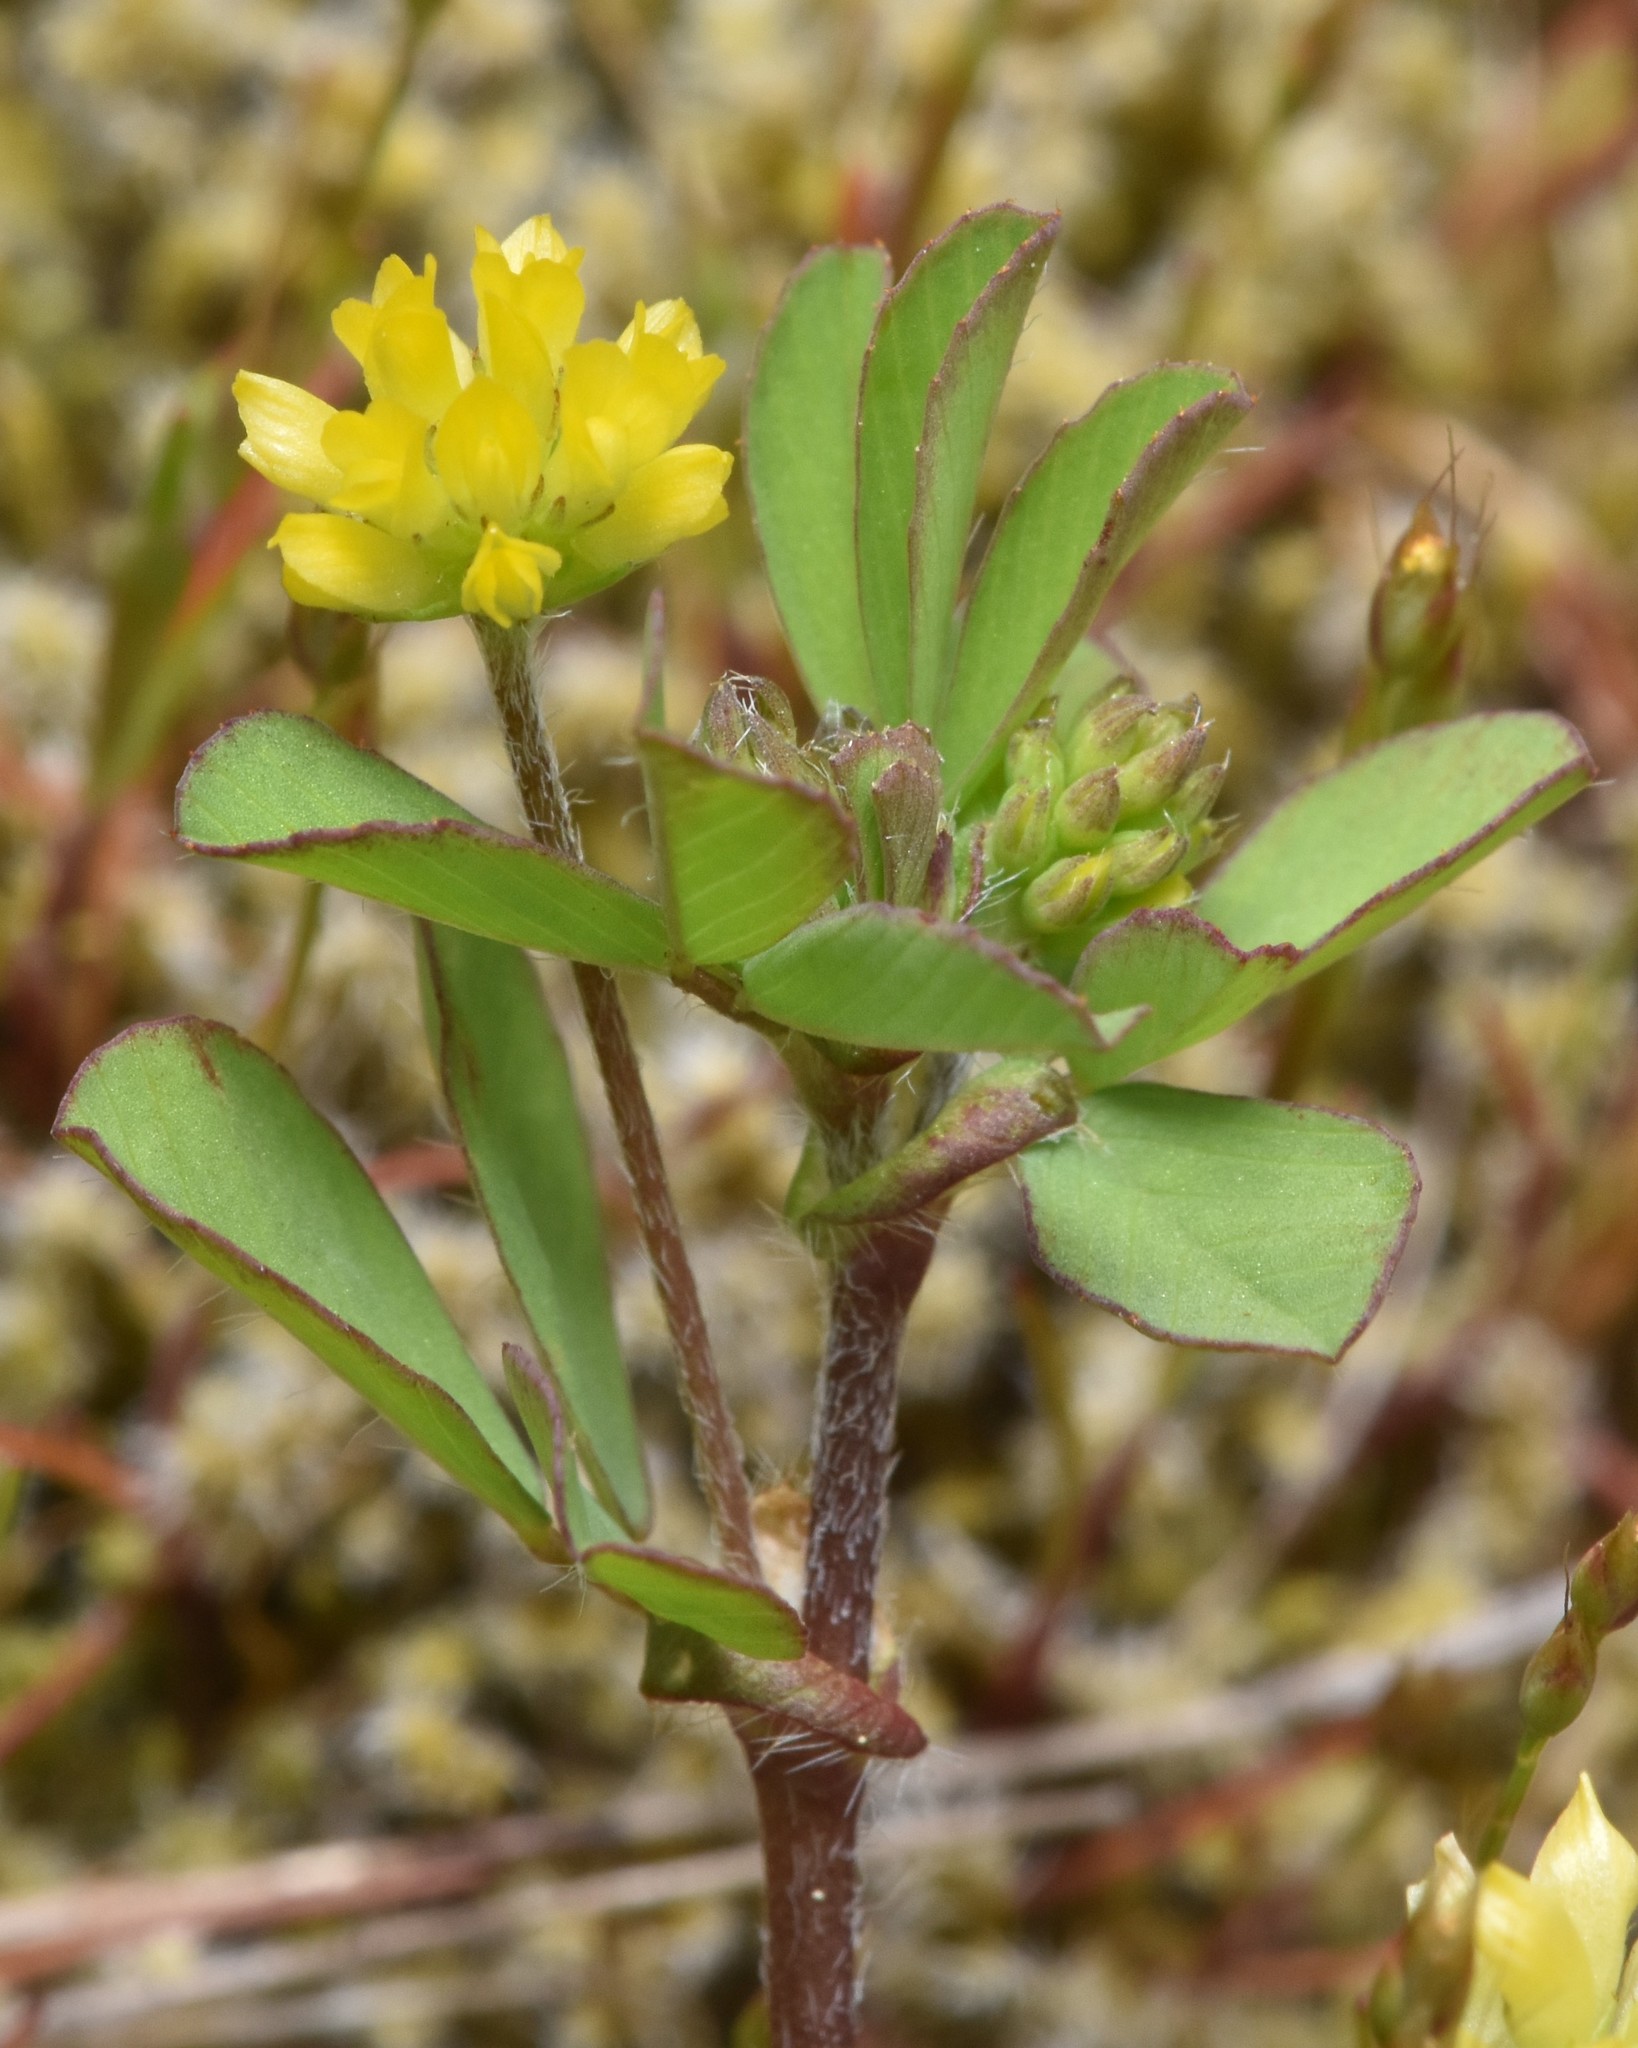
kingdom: Plantae
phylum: Tracheophyta
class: Magnoliopsida
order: Fabales
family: Fabaceae
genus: Trifolium
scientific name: Trifolium dubium
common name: Suckling clover
